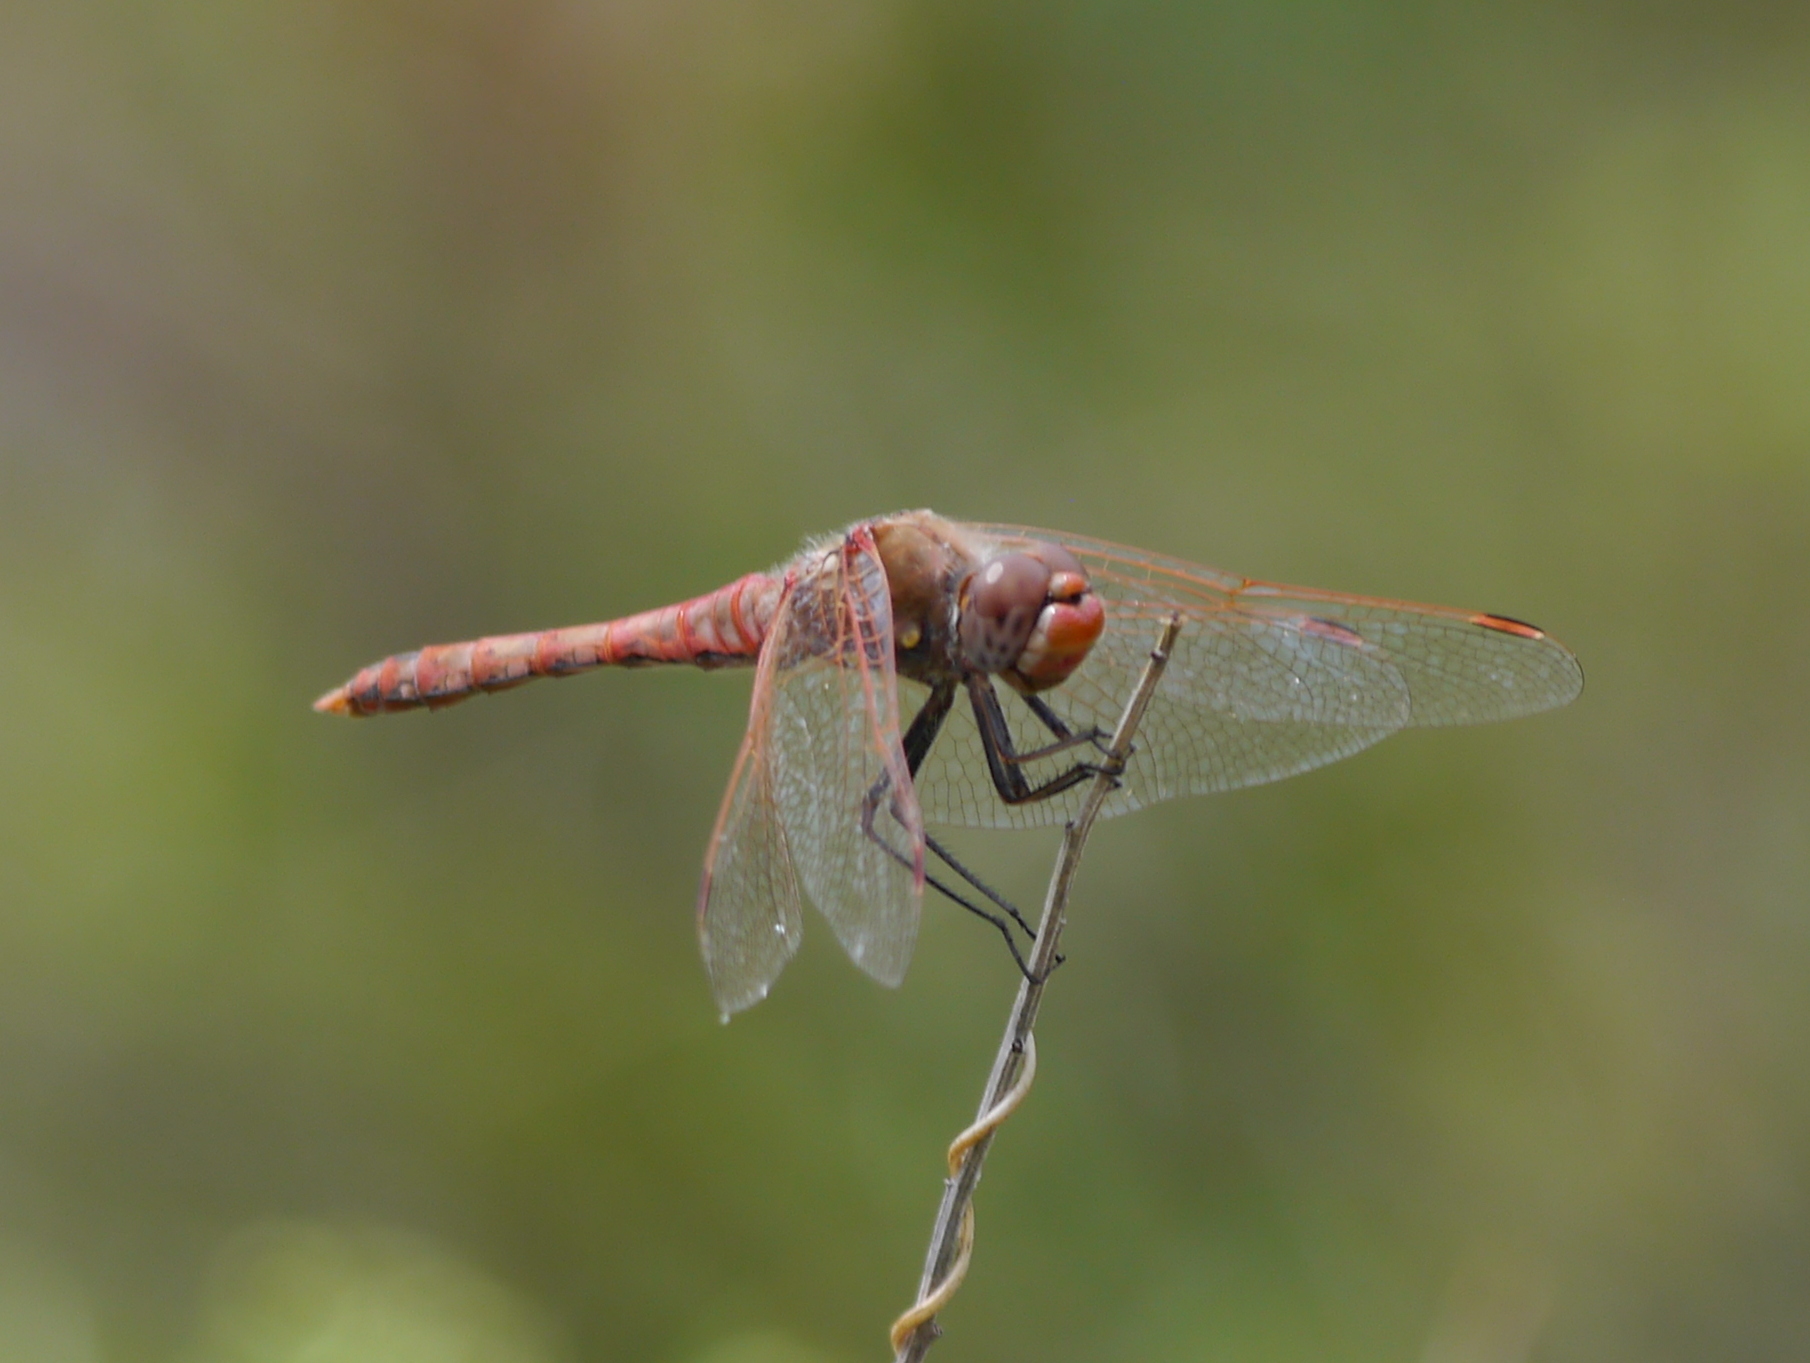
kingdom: Animalia
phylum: Arthropoda
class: Insecta
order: Odonata
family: Libellulidae
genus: Sympetrum
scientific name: Sympetrum corruptum
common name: Variegated meadowhawk
